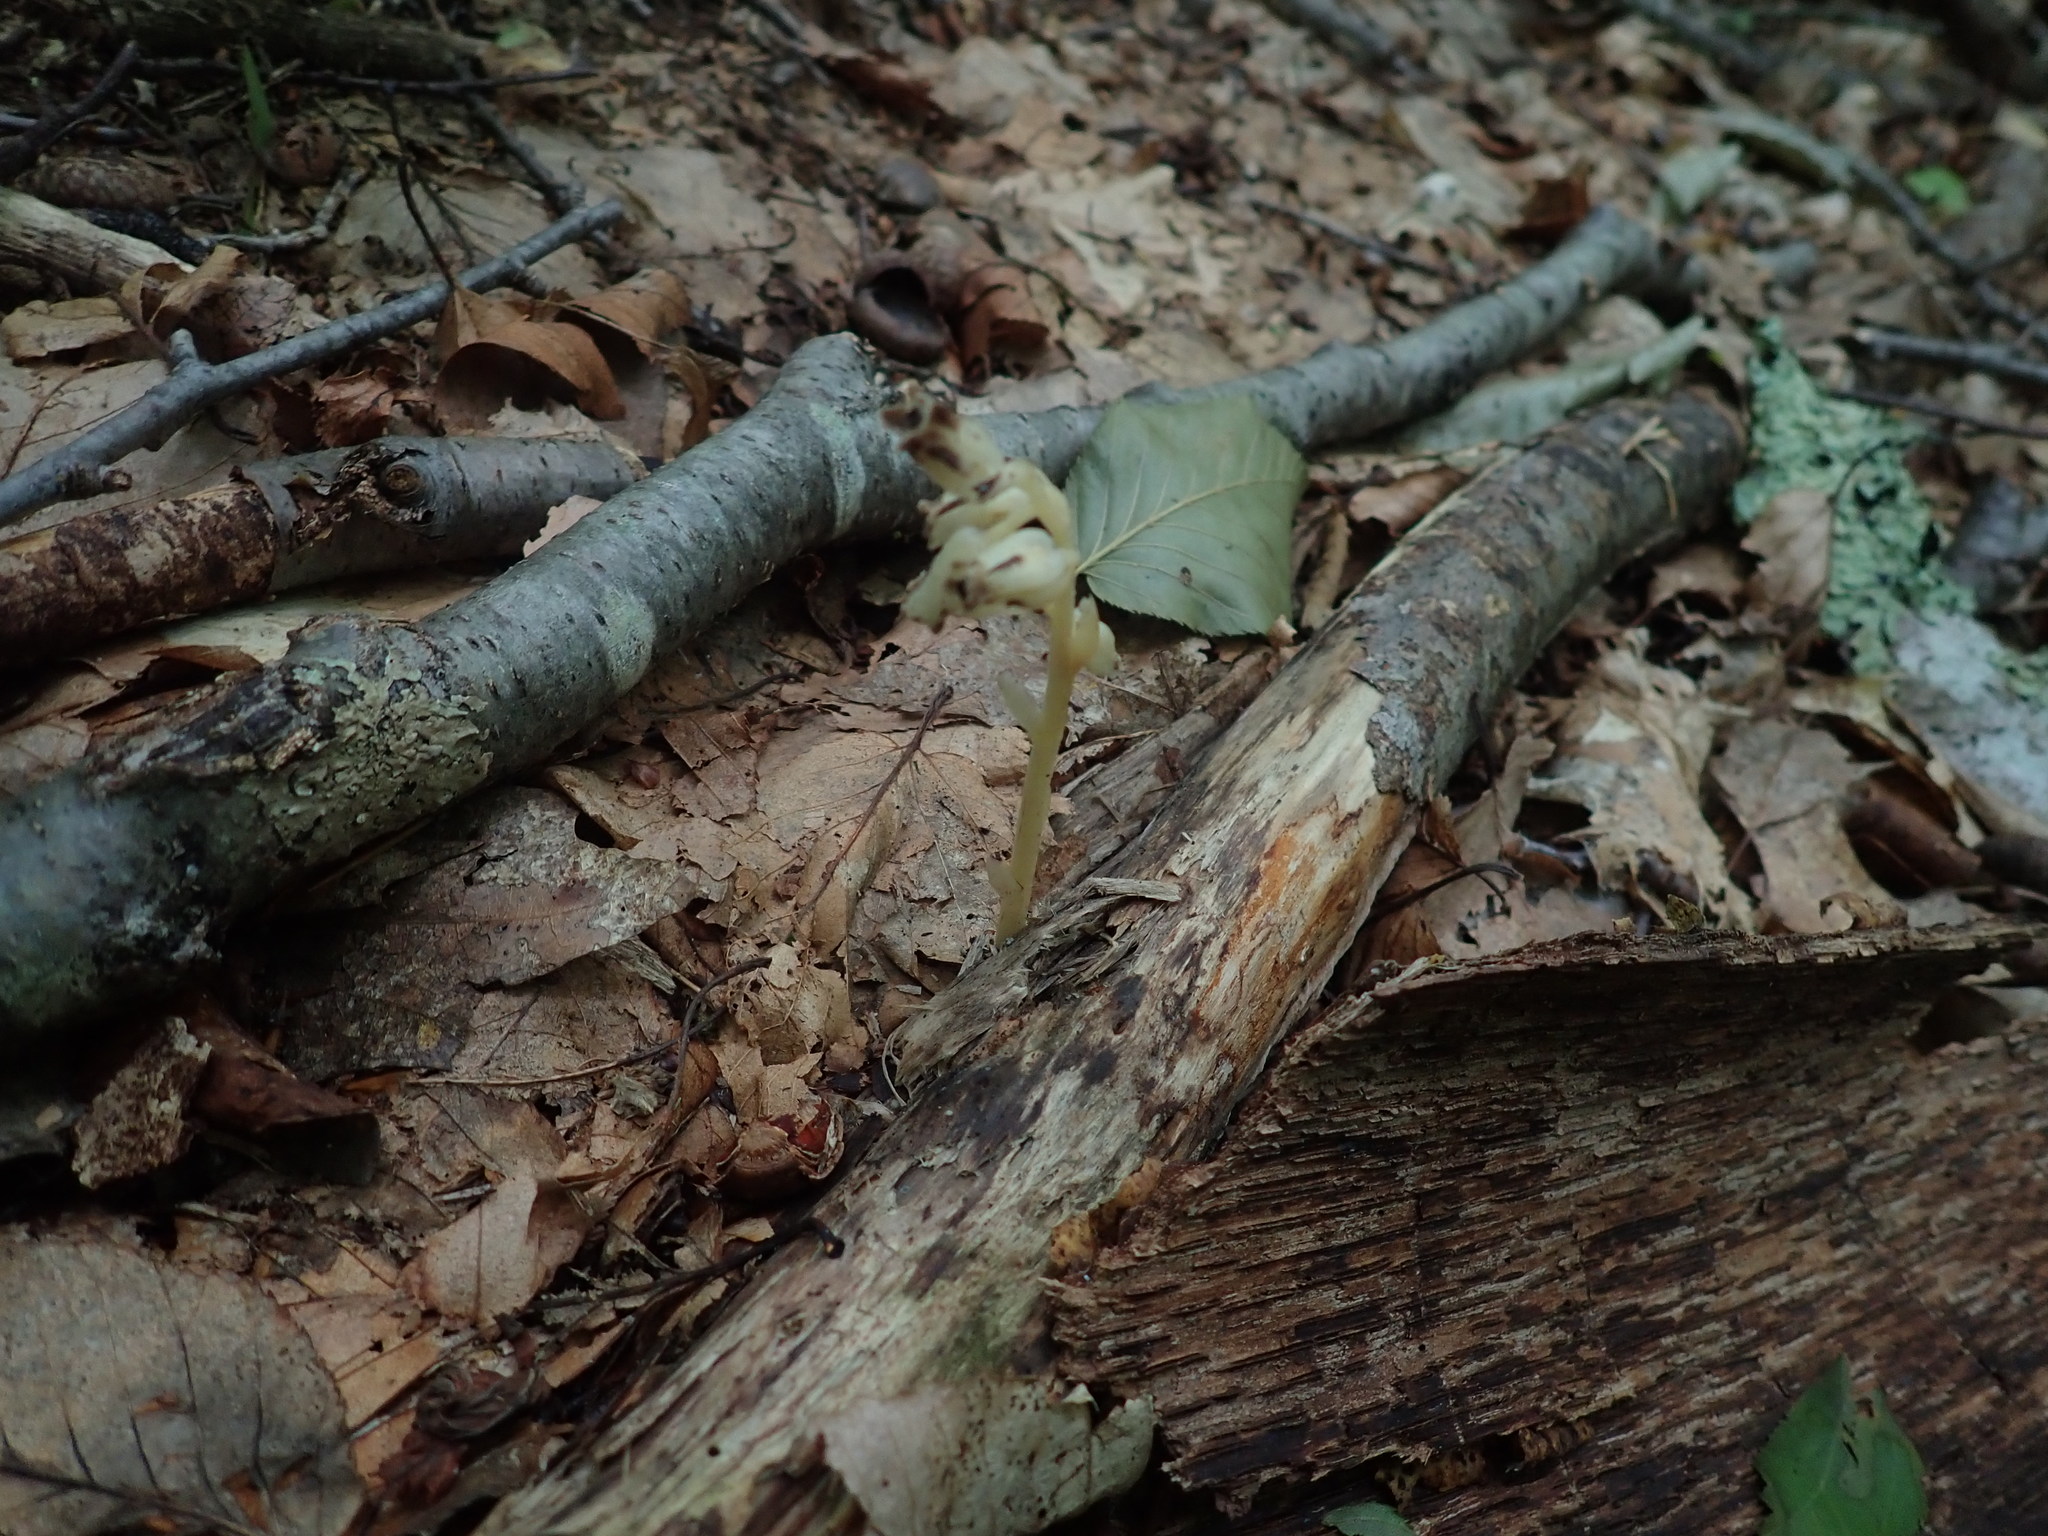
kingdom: Plantae
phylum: Tracheophyta
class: Magnoliopsida
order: Ericales
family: Ericaceae
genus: Hypopitys
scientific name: Hypopitys monotropa
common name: Yellow bird's-nest
